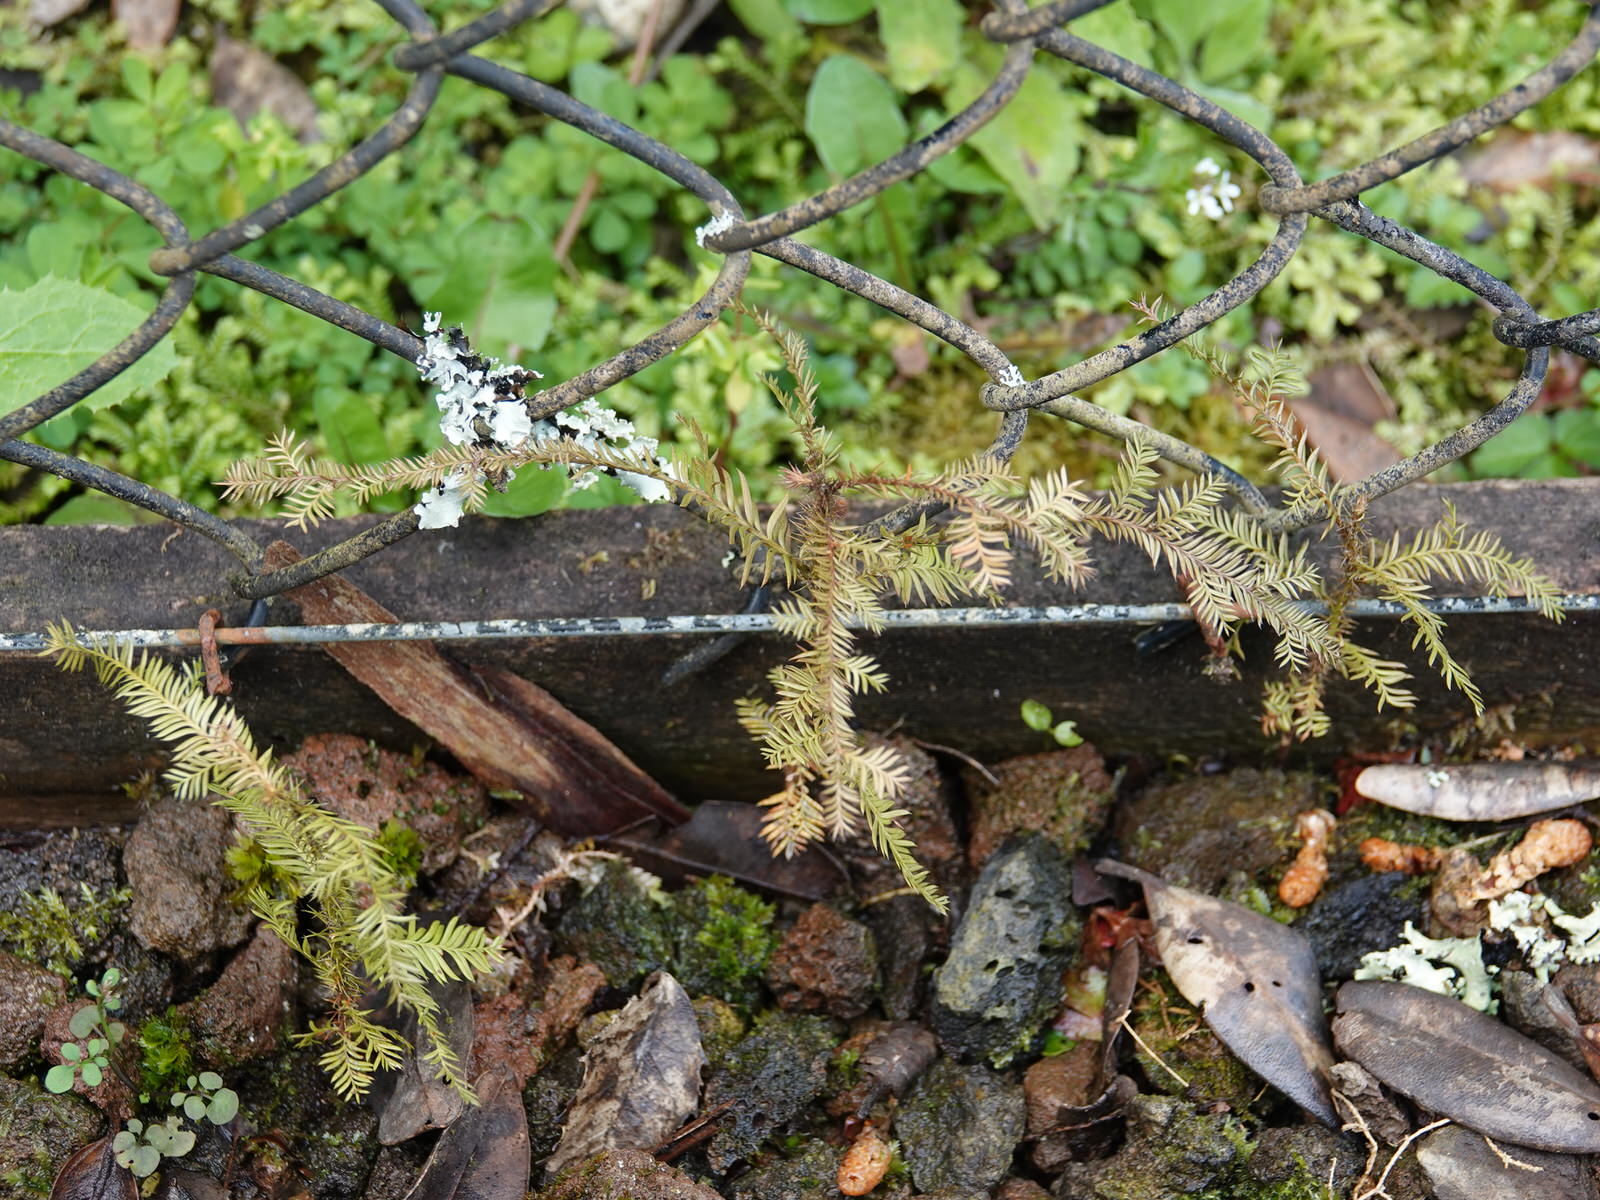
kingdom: Plantae
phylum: Tracheophyta
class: Pinopsida
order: Pinales
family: Podocarpaceae
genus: Dacrycarpus
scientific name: Dacrycarpus dacrydioides
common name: White pine
